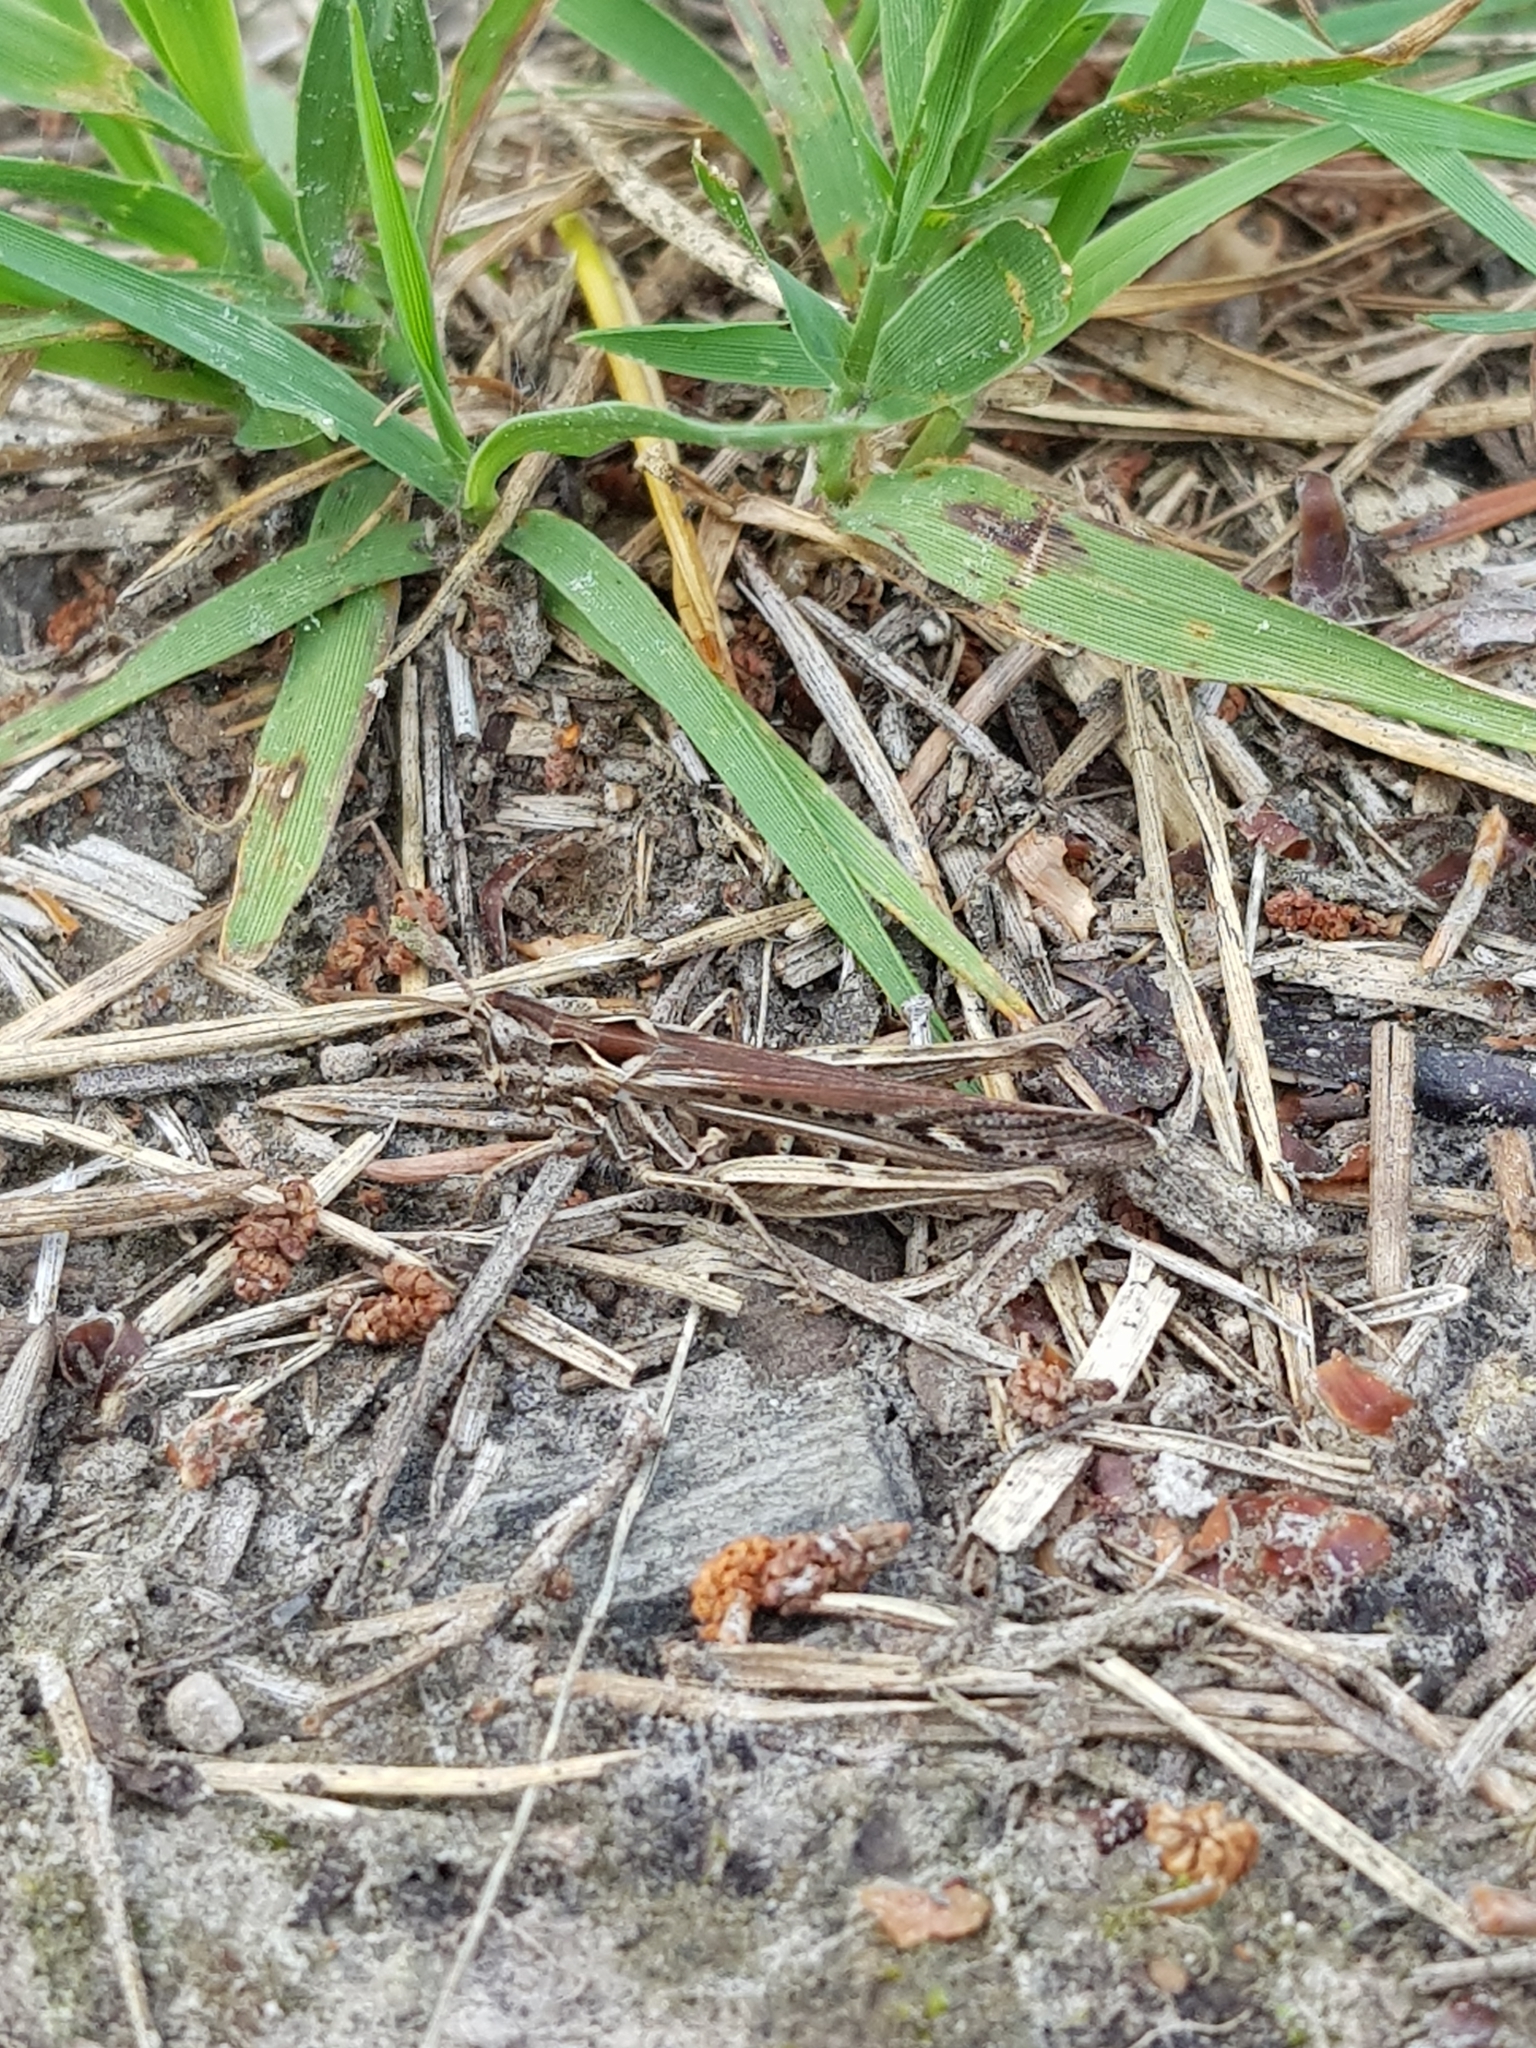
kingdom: Animalia
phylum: Arthropoda
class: Insecta
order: Orthoptera
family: Acrididae
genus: Chorthippus
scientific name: Chorthippus brunneus
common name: Field grasshopper
